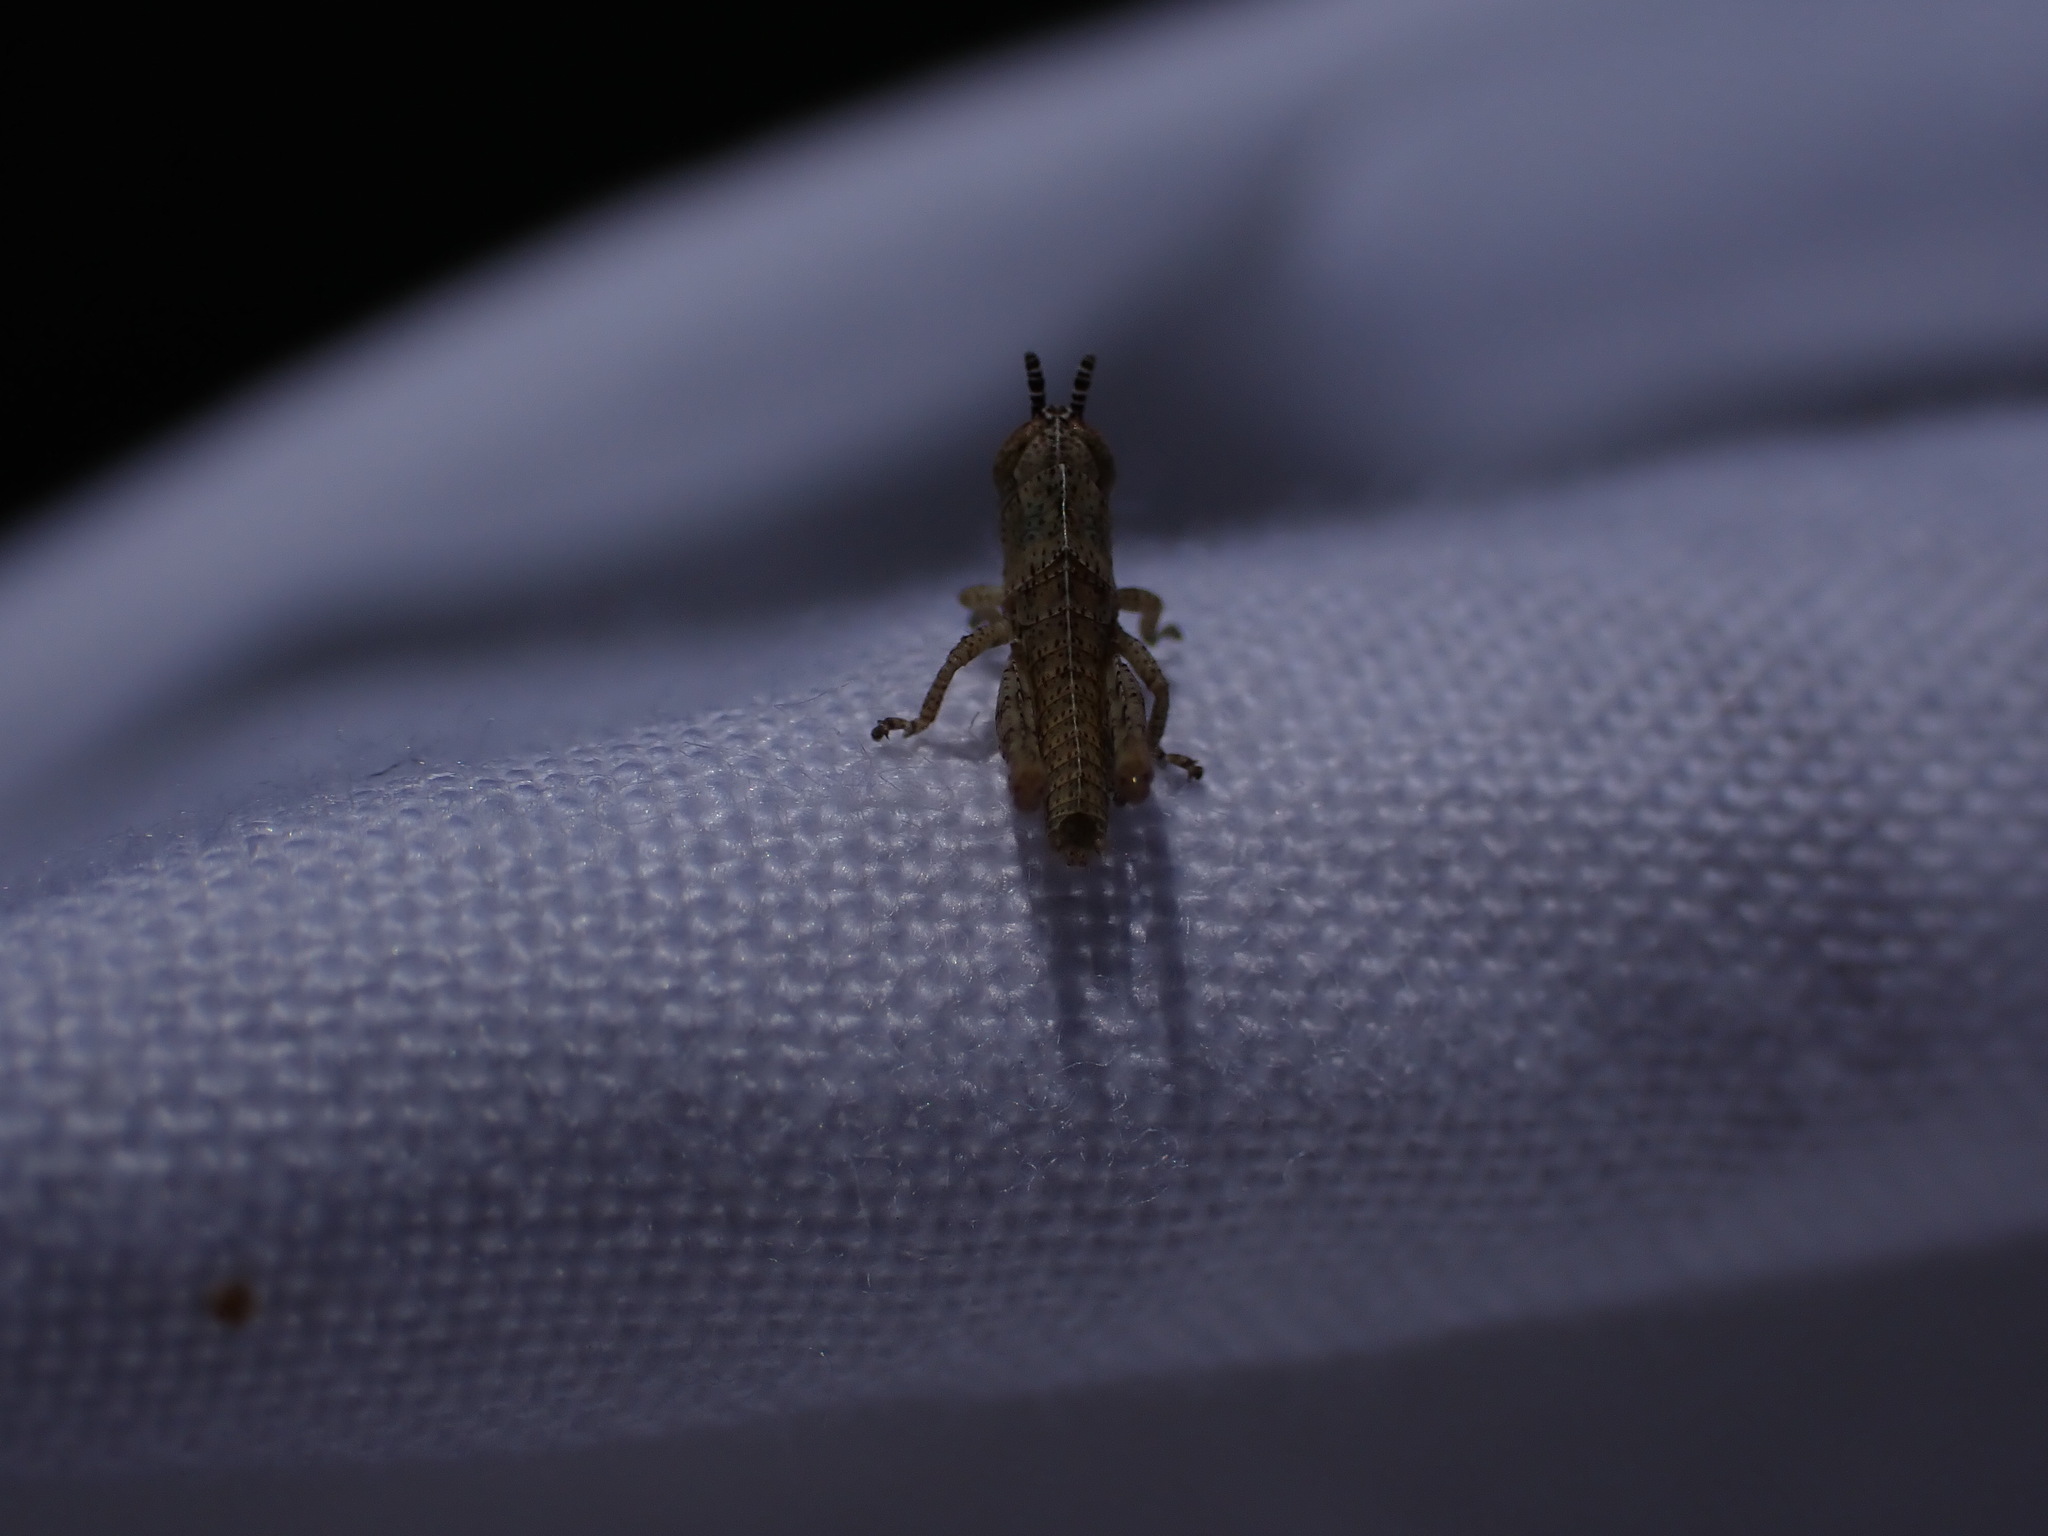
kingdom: Animalia
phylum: Arthropoda
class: Insecta
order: Orthoptera
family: Acrididae
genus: Pezotettix
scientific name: Pezotettix giornae
